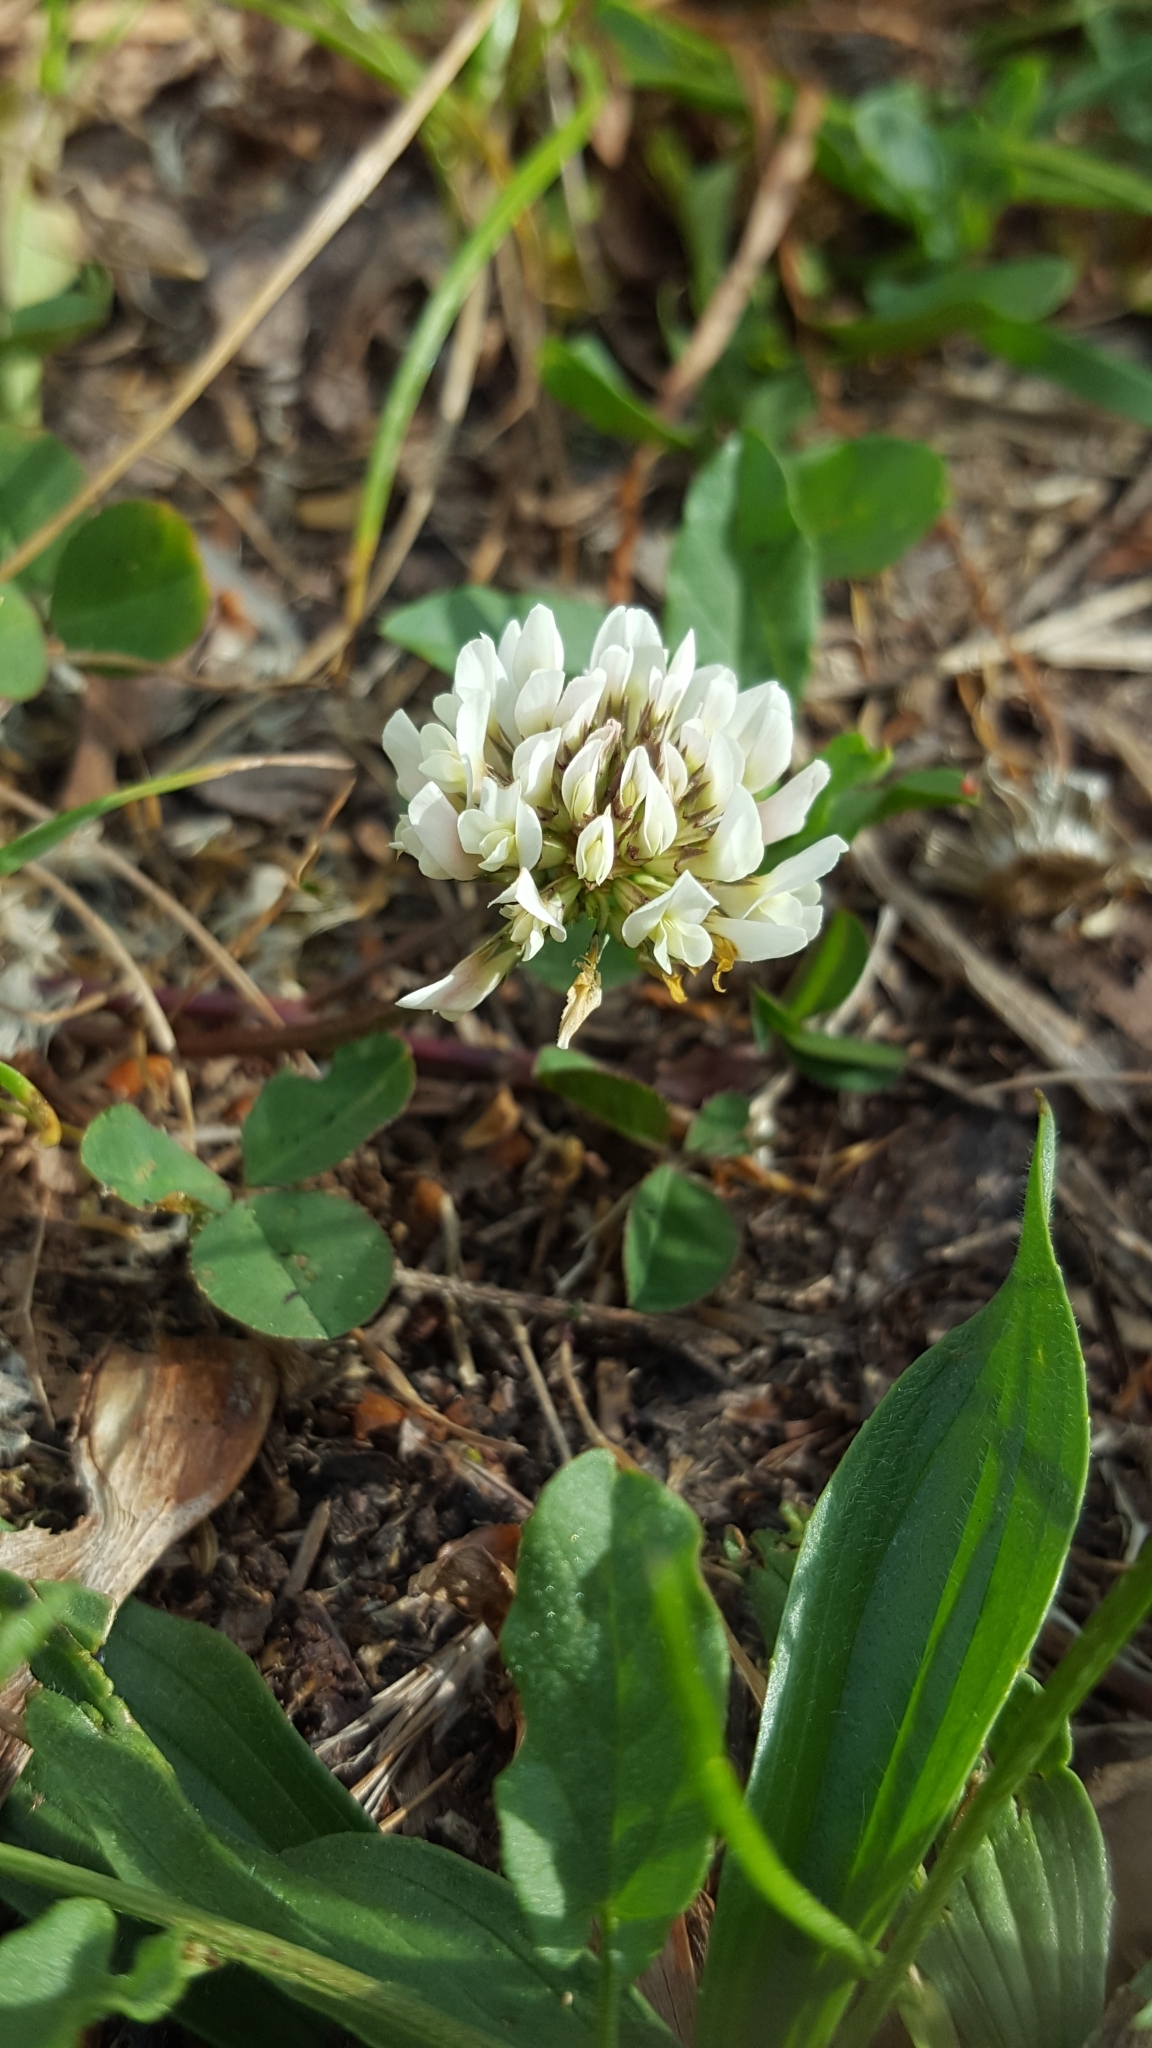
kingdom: Plantae
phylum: Tracheophyta
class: Magnoliopsida
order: Fabales
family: Fabaceae
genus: Trifolium
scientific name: Trifolium repens
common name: White clover
